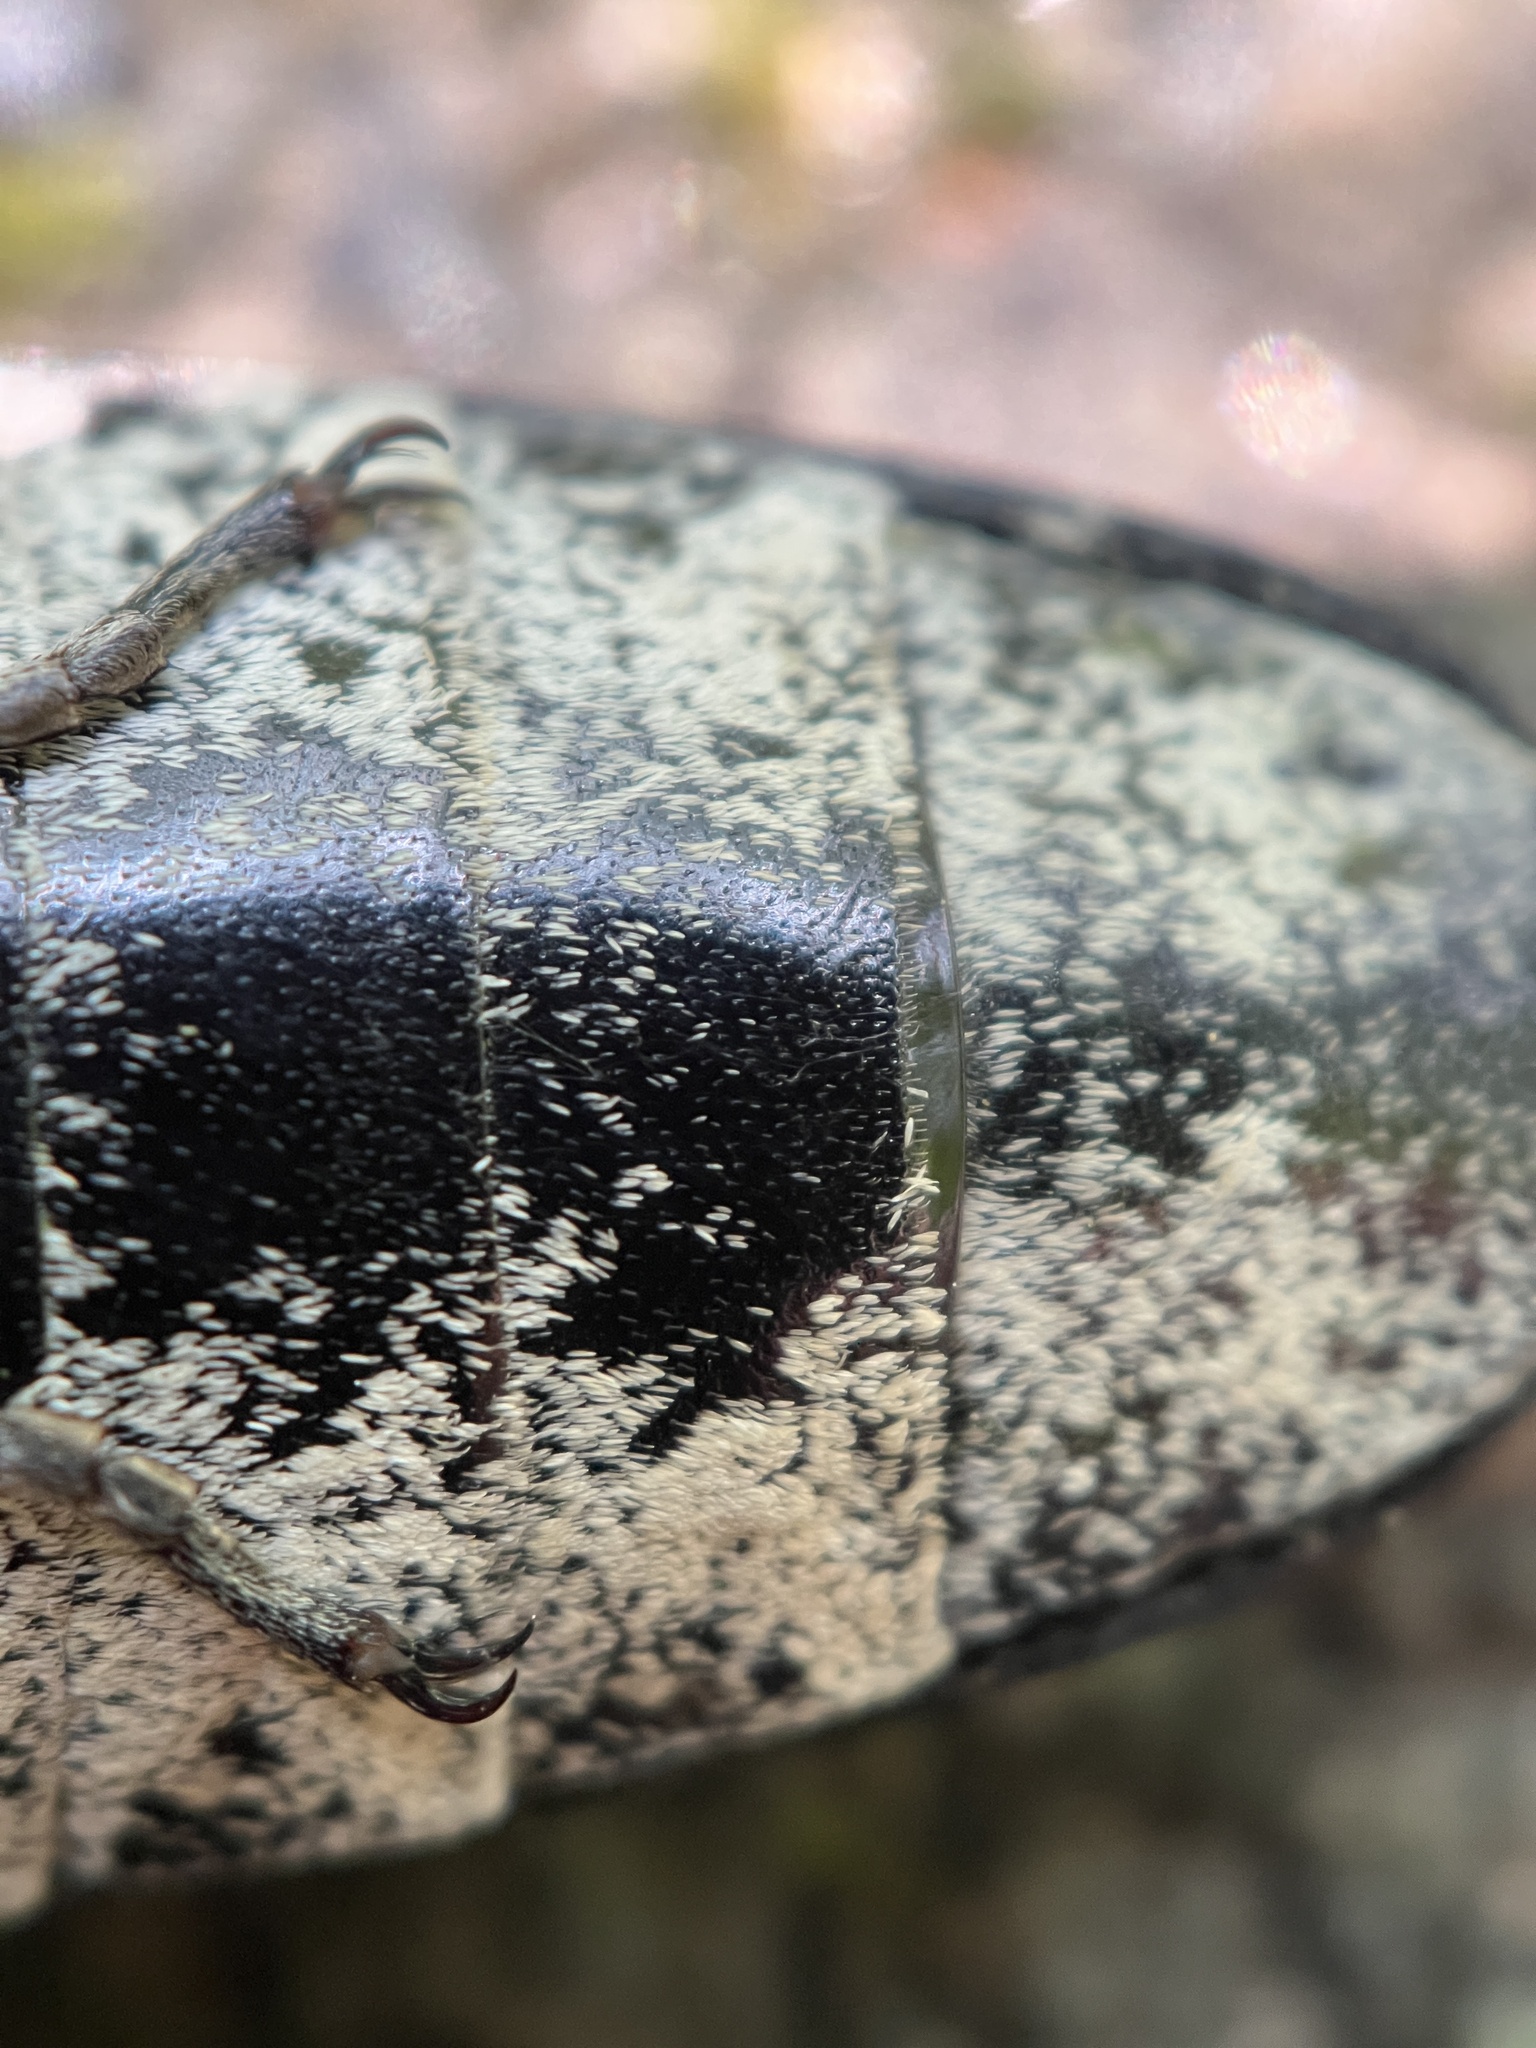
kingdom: Animalia
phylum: Arthropoda
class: Insecta
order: Coleoptera
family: Elateridae
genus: Alaus
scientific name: Alaus oculatus
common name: Eastern eyed click beetle
